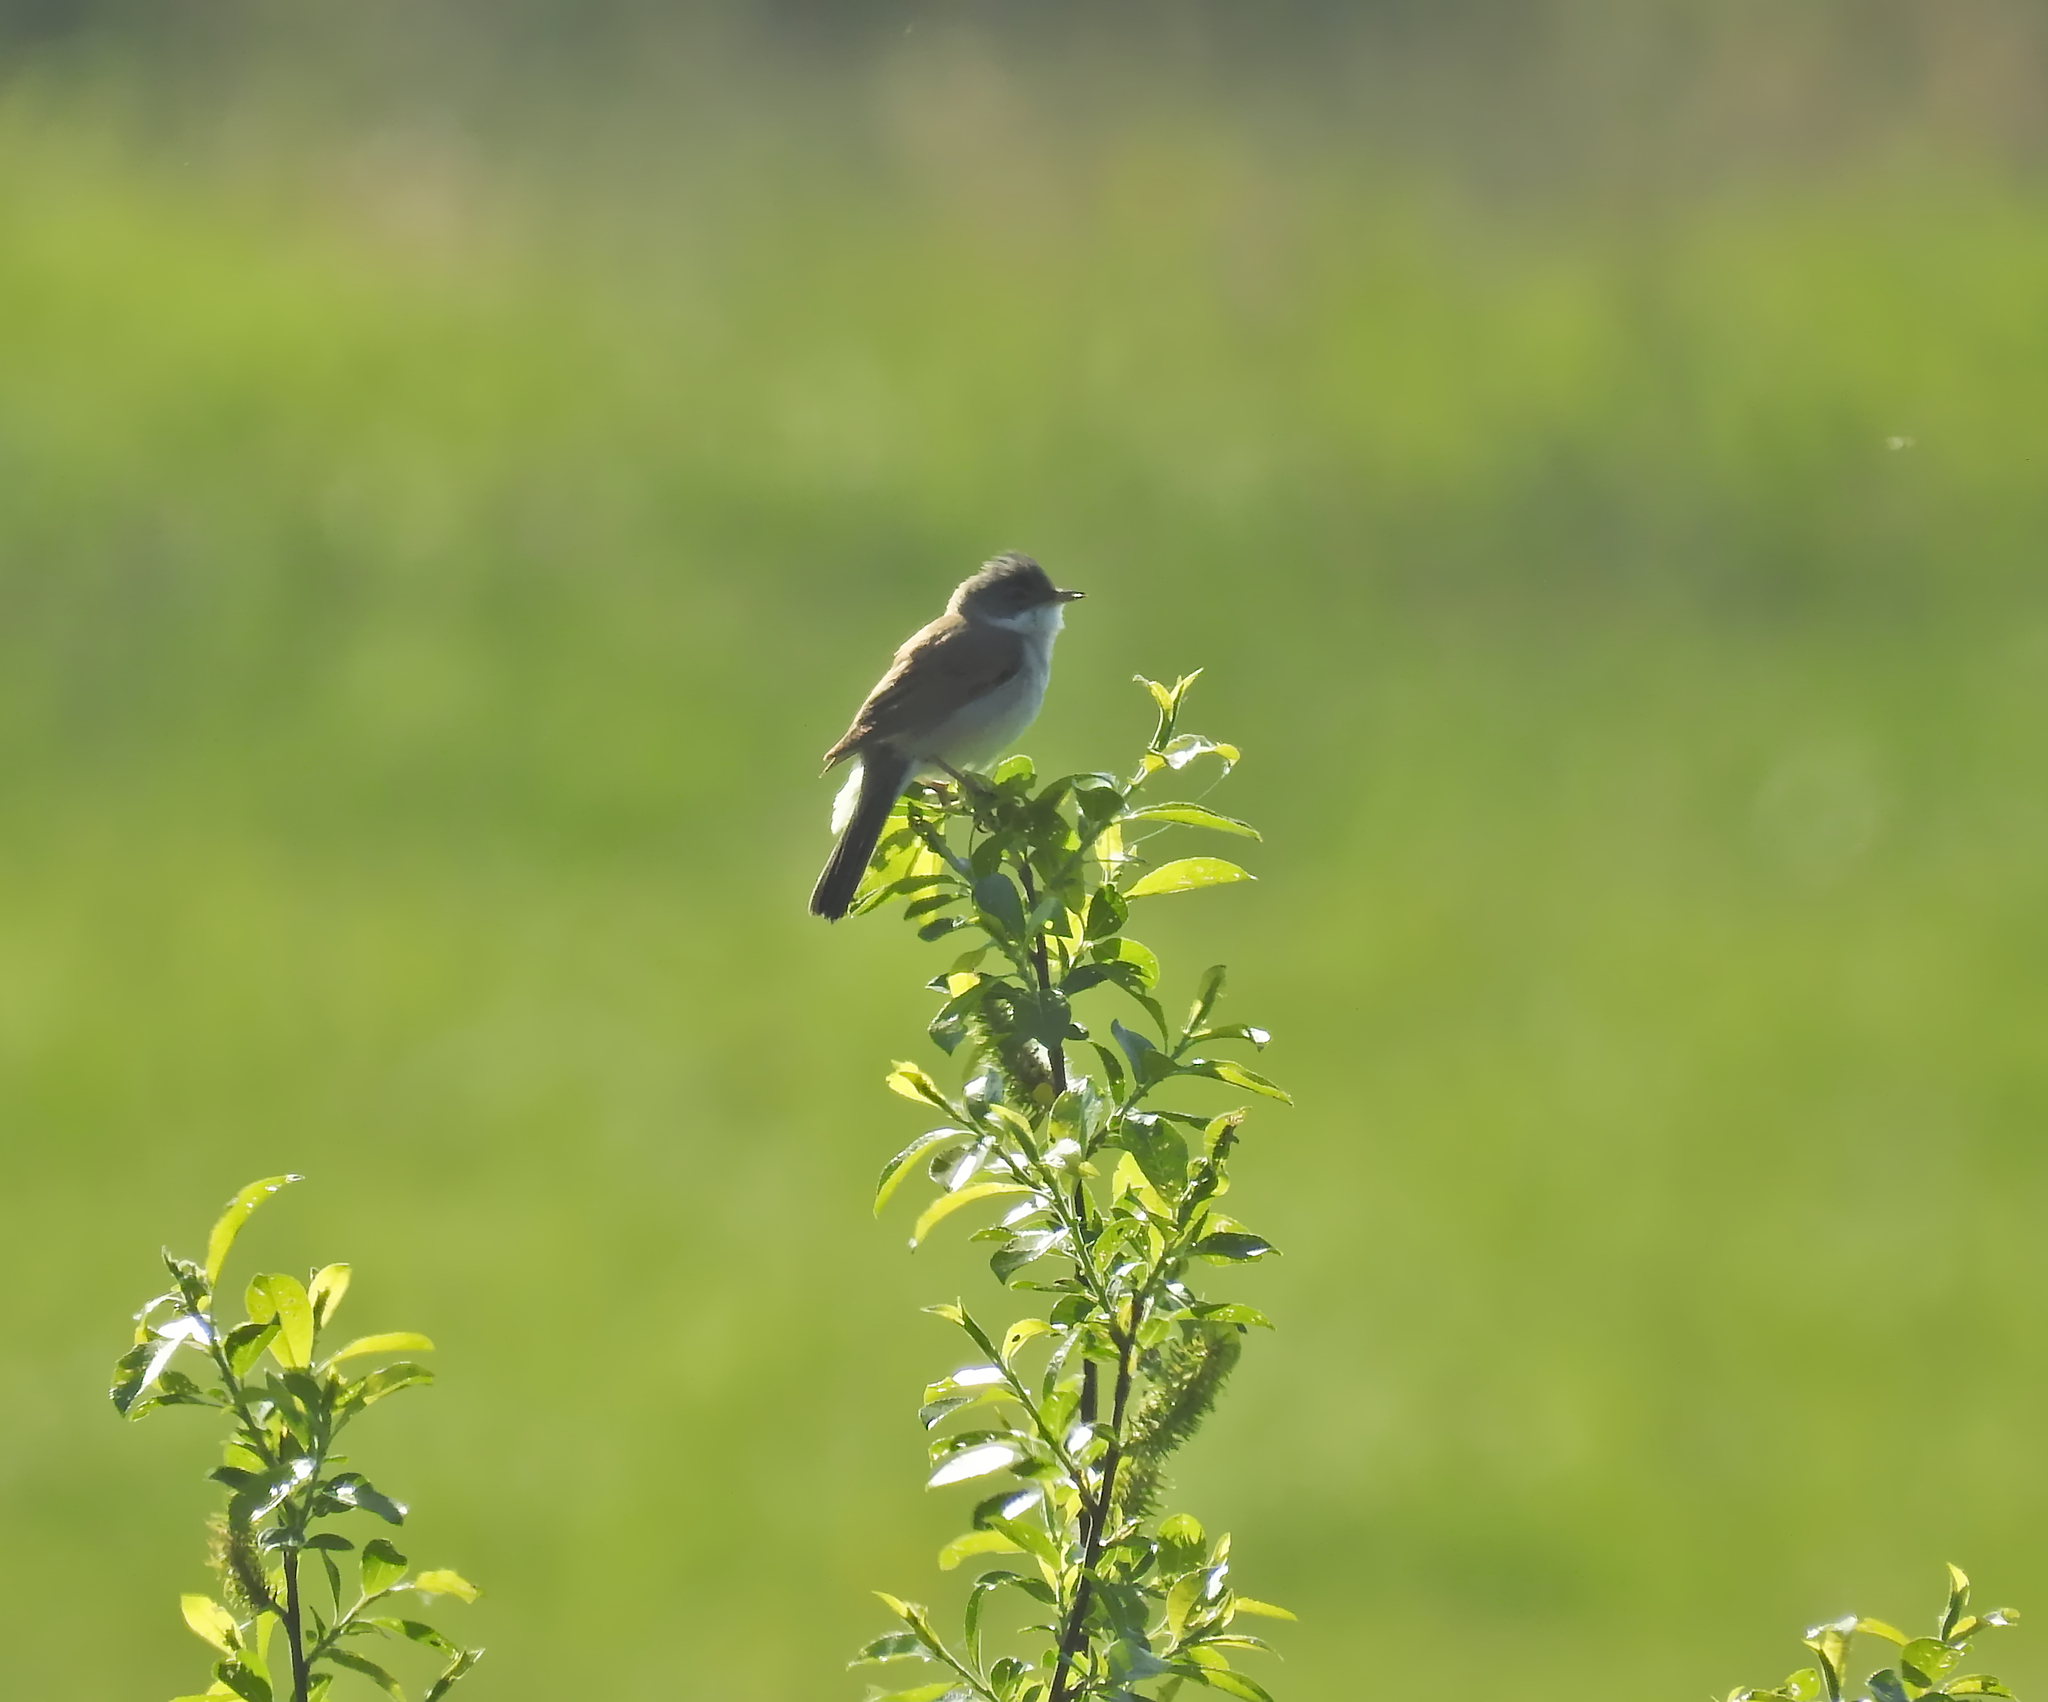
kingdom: Animalia
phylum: Chordata
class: Aves
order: Passeriformes
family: Sylviidae
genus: Sylvia
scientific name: Sylvia communis
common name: Common whitethroat
